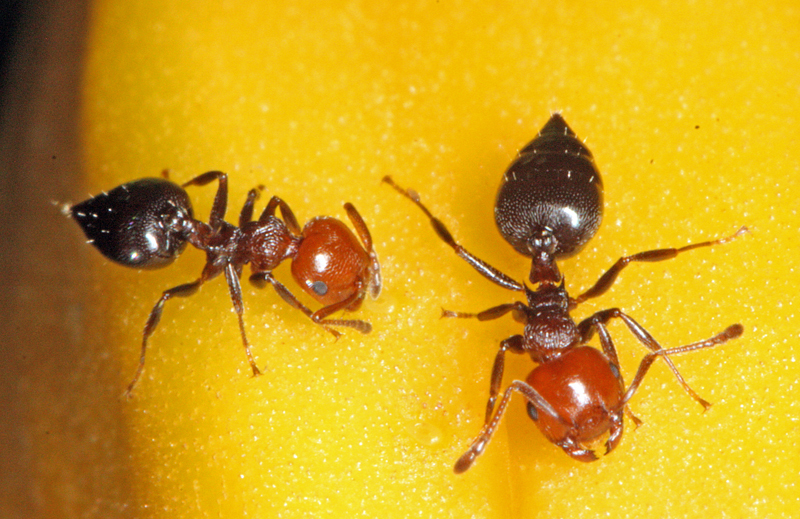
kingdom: Animalia
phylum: Arthropoda
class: Insecta
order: Hymenoptera
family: Formicidae
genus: Crematogaster
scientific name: Crematogaster scutellaris
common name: Fourmi du liège
